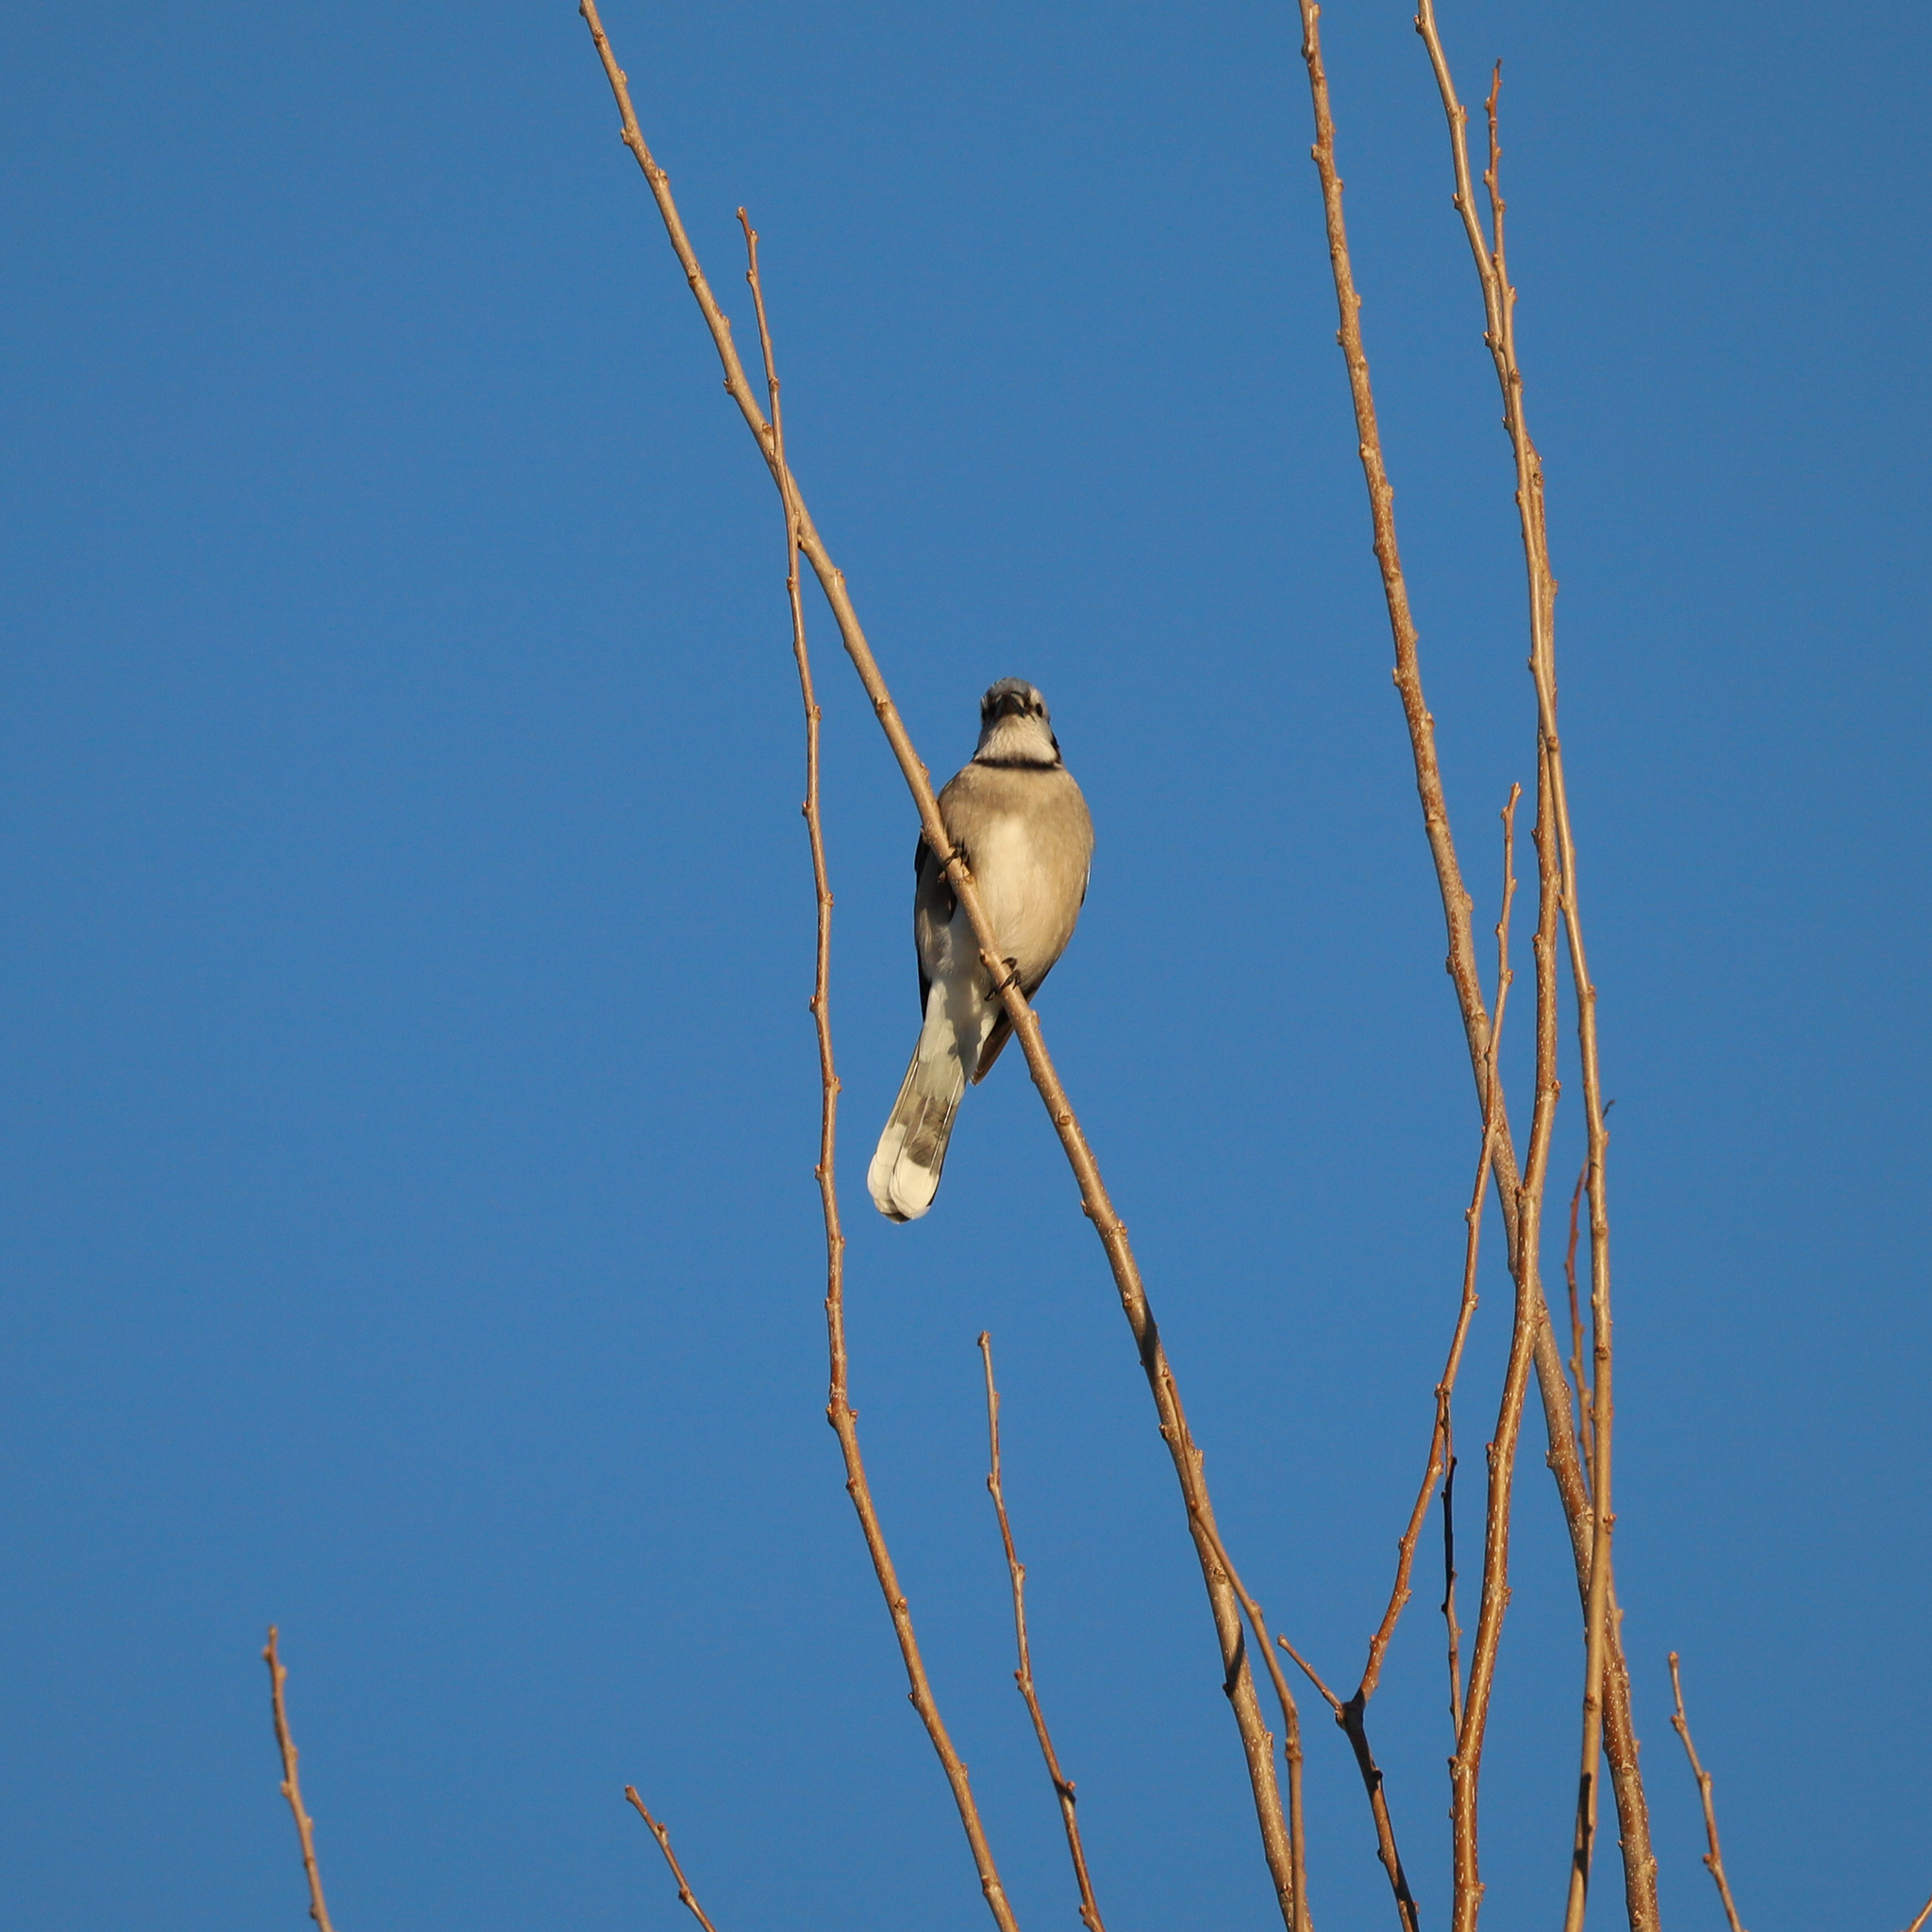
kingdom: Animalia
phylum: Chordata
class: Aves
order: Passeriformes
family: Corvidae
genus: Cyanocitta
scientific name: Cyanocitta cristata
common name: Blue jay
